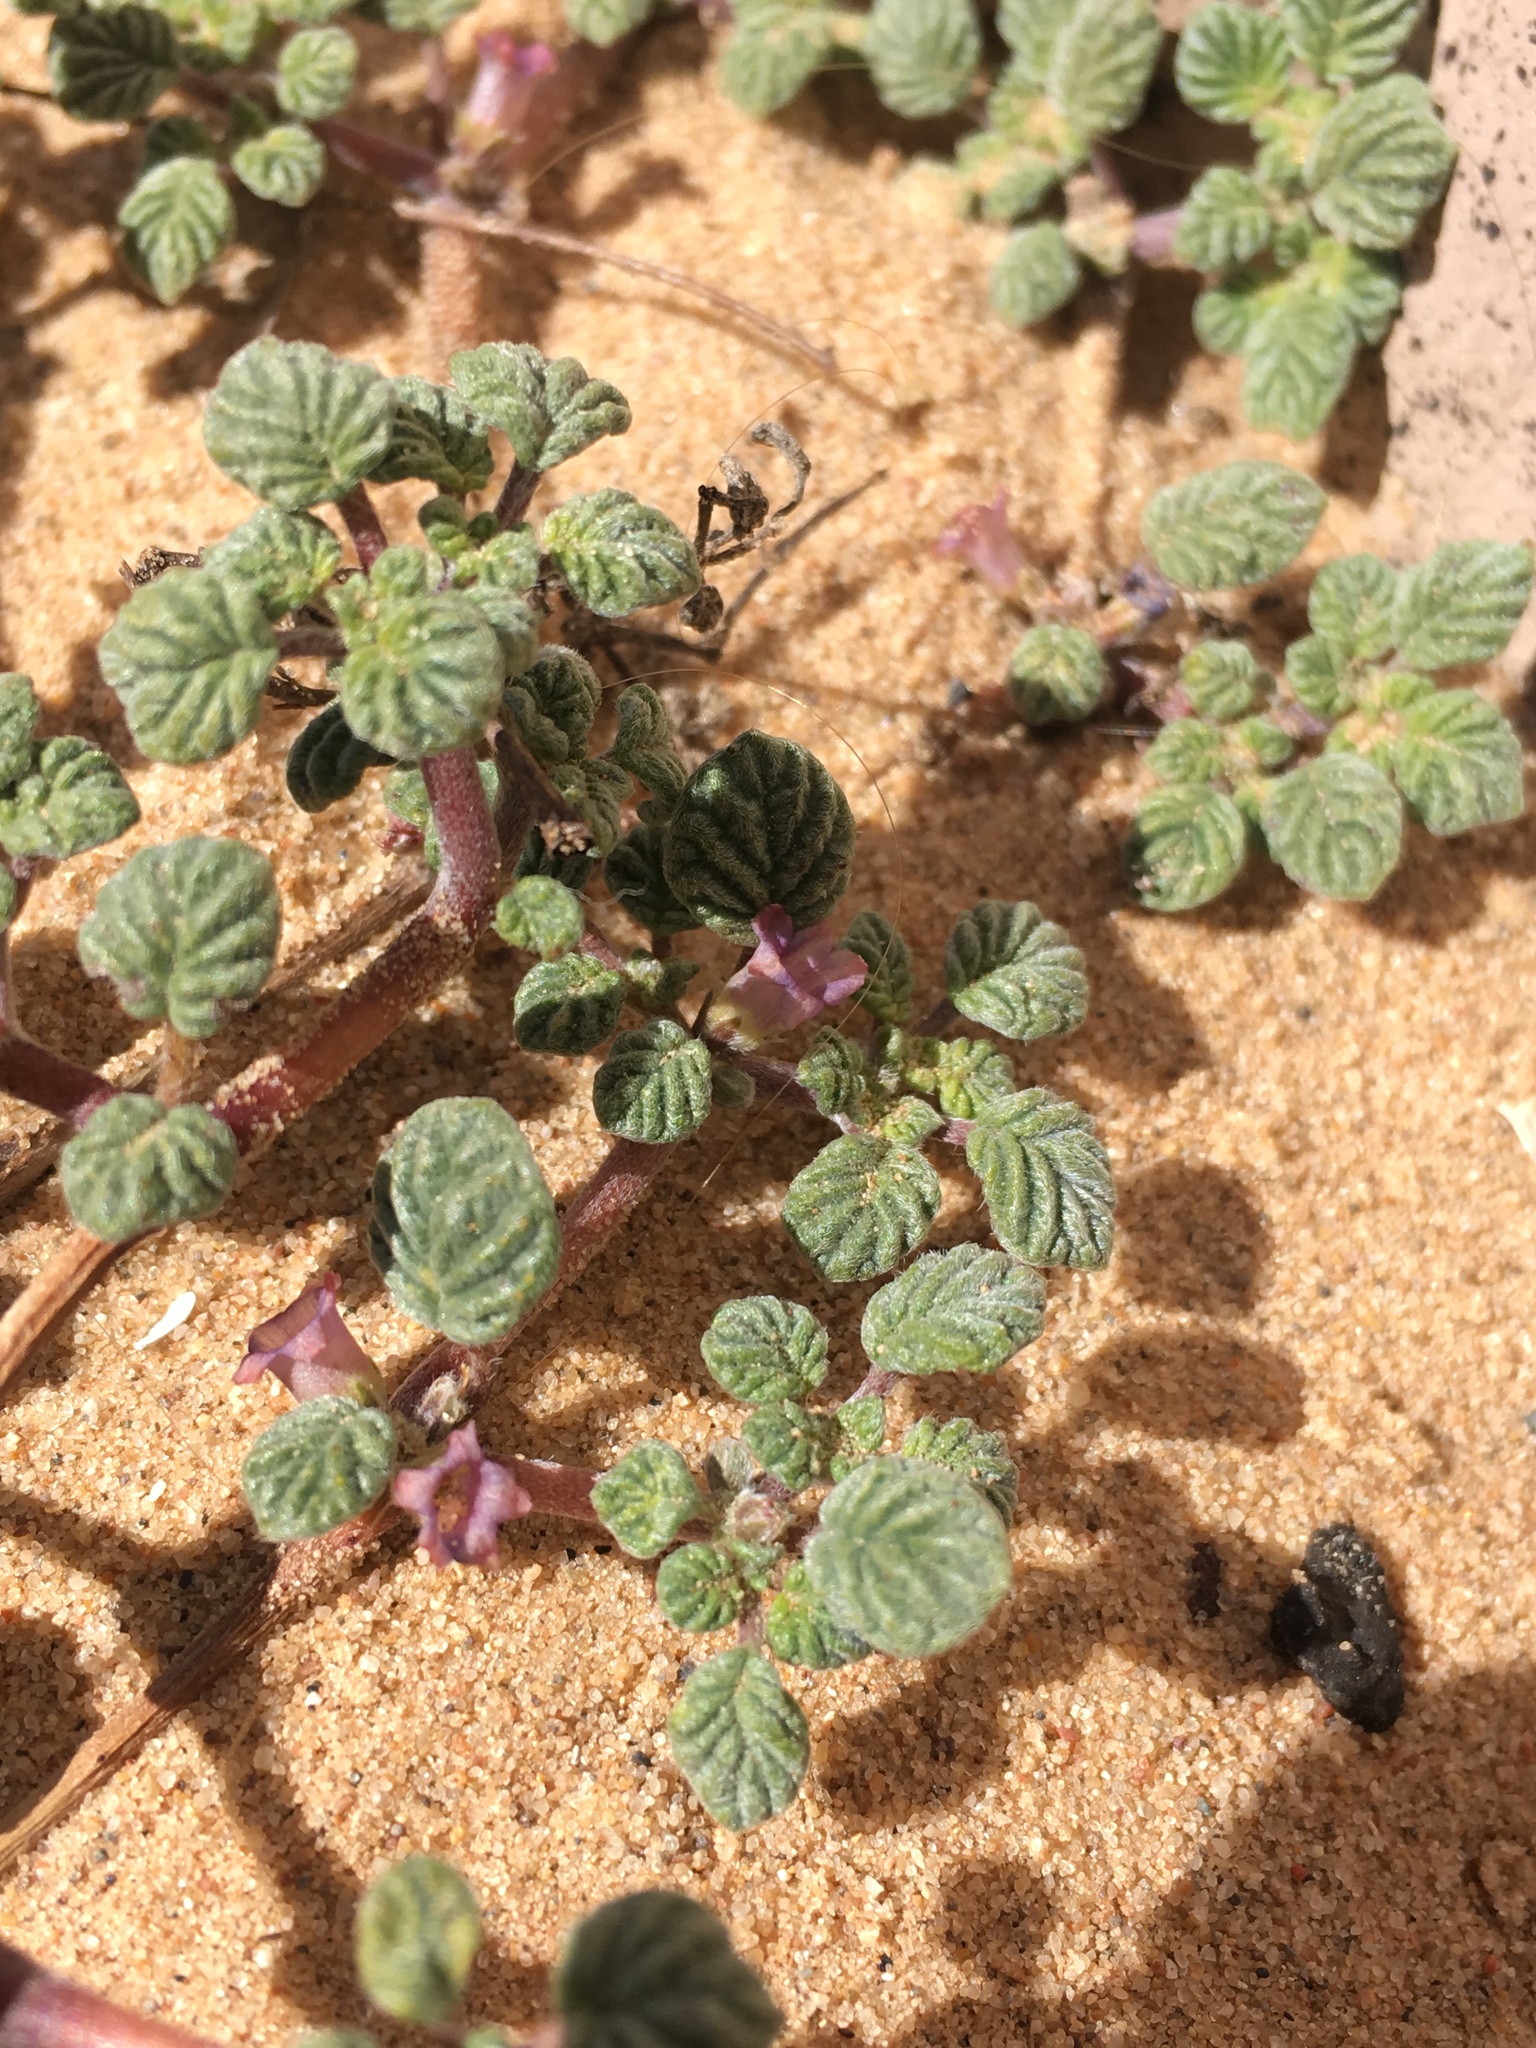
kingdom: Plantae
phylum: Tracheophyta
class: Magnoliopsida
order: Boraginales
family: Ehretiaceae
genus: Tiquilia
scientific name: Tiquilia plicata
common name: Fan-leaf tiquilia
